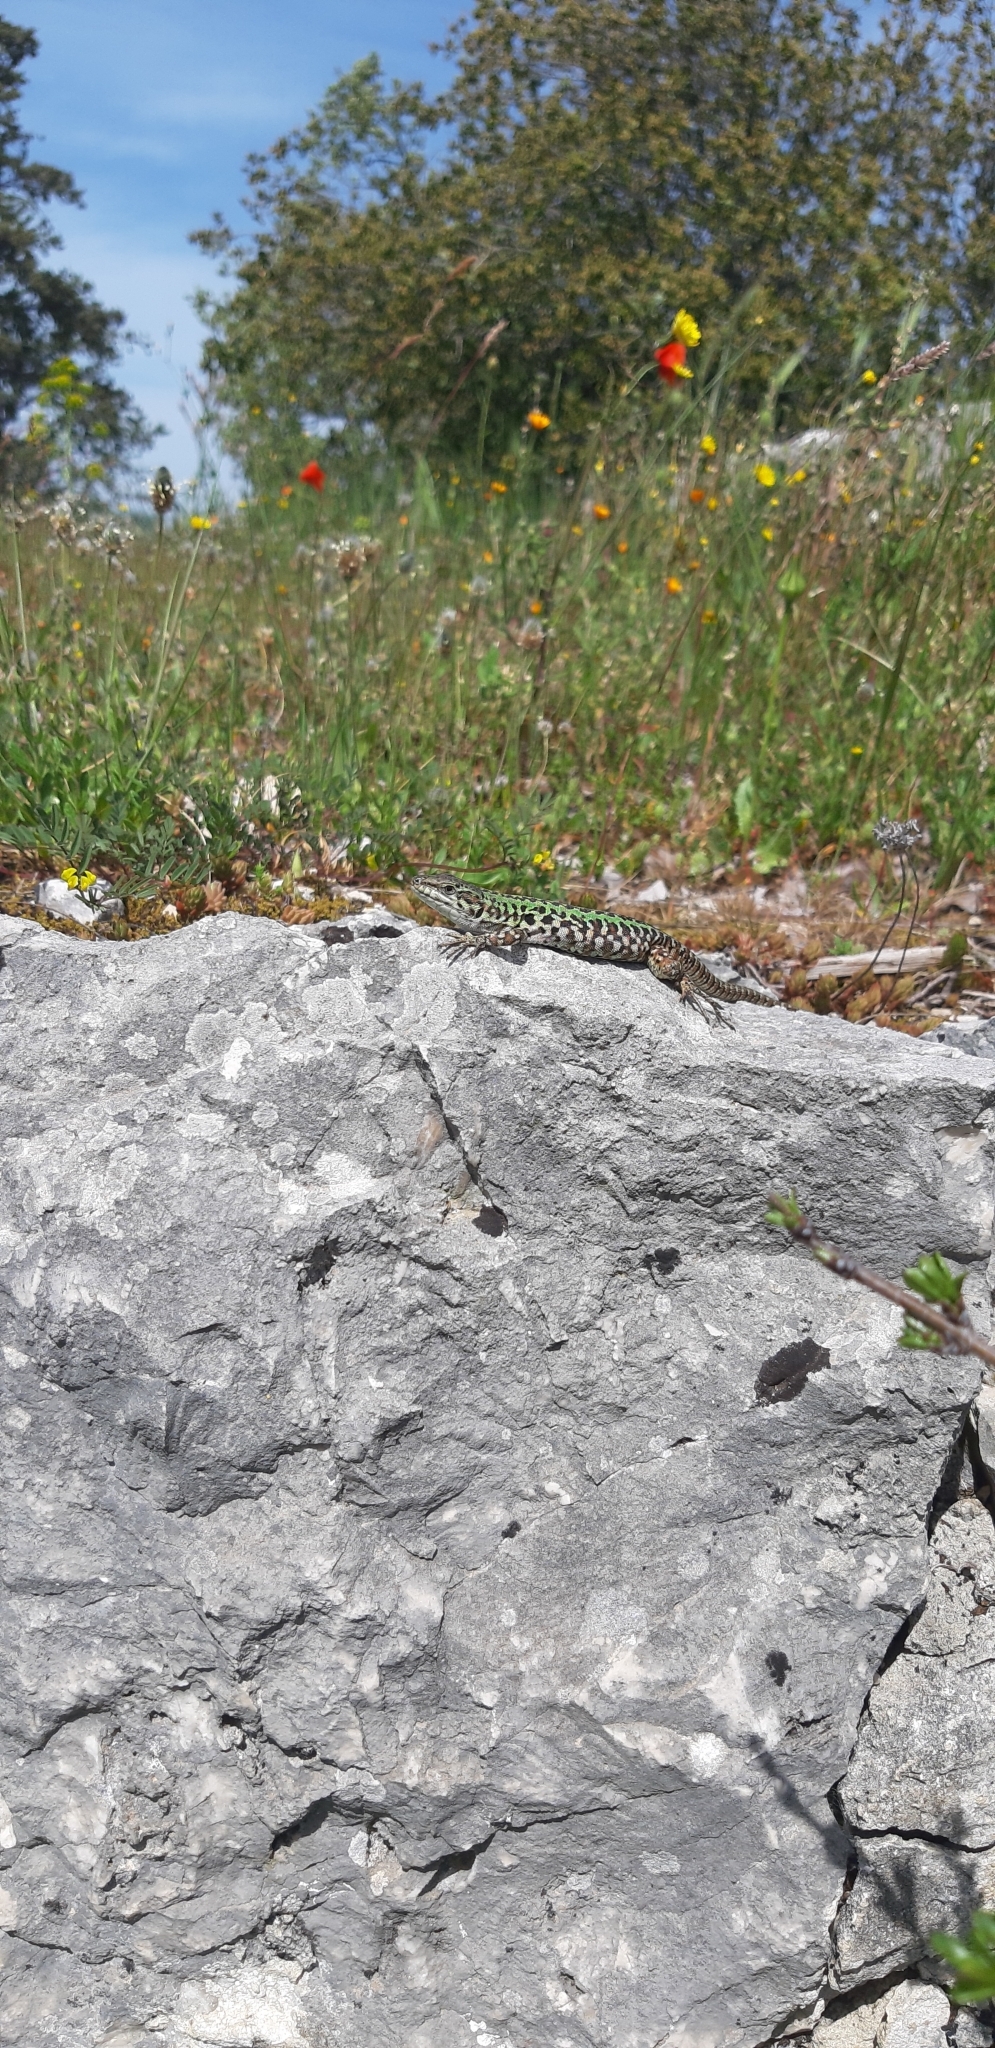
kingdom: Animalia
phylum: Chordata
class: Squamata
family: Lacertidae
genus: Podarcis
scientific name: Podarcis siculus
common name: Italian wall lizard
